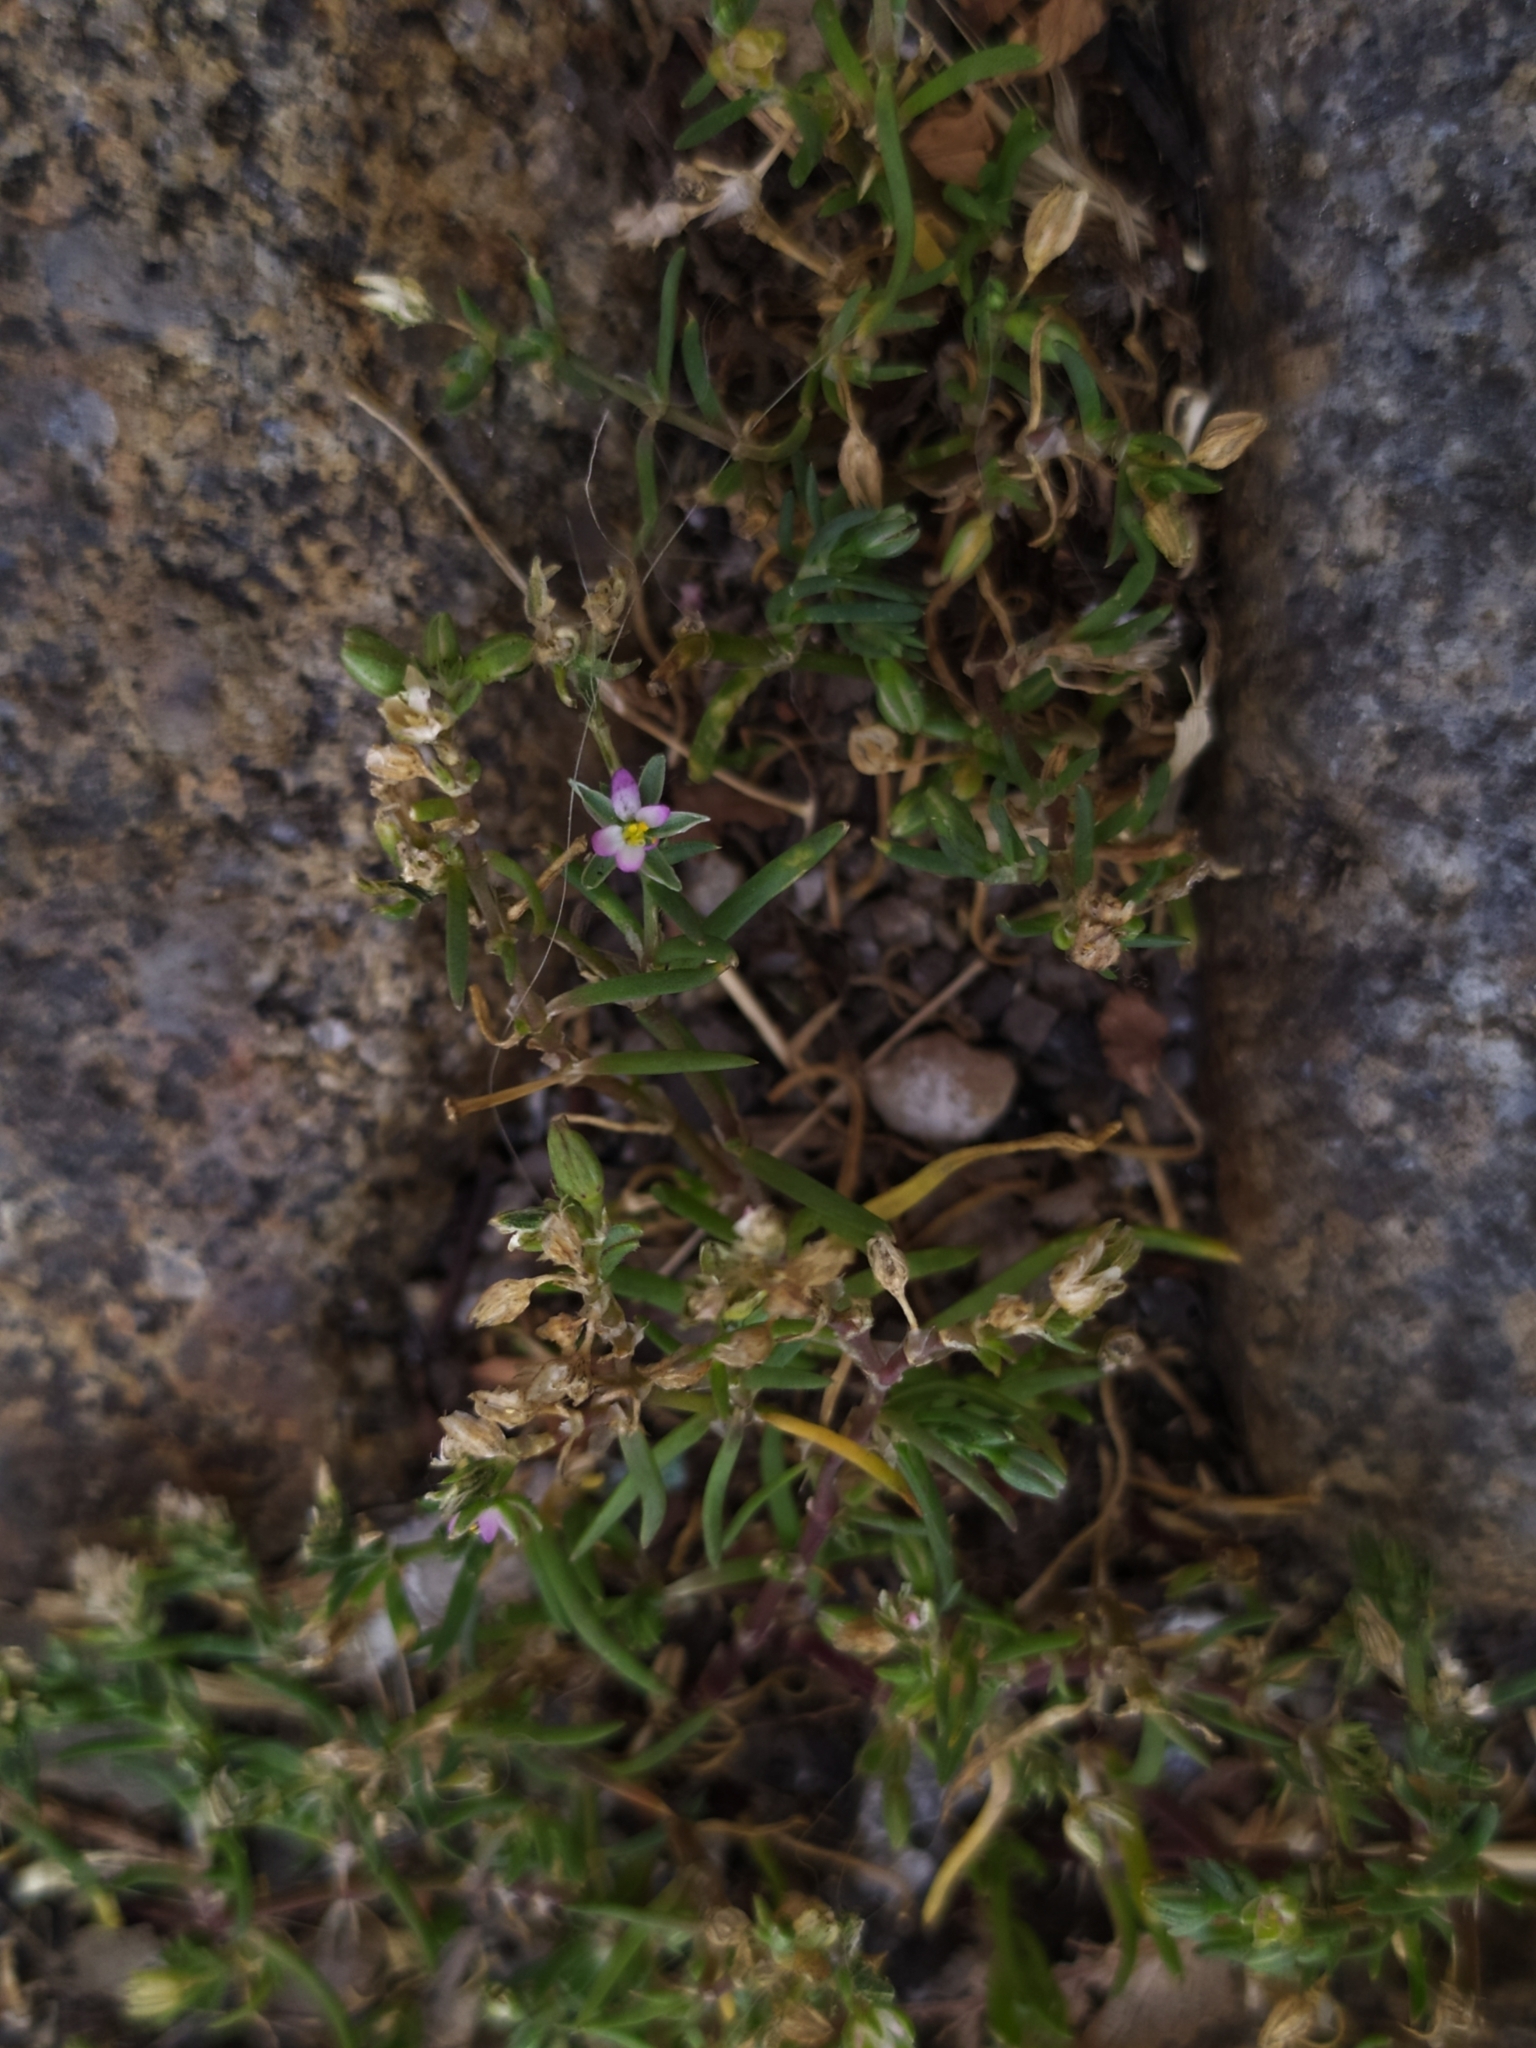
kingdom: Plantae
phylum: Tracheophyta
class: Magnoliopsida
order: Caryophyllales
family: Caryophyllaceae
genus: Spergularia
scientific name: Spergularia marina
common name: Lesser sea-spurrey
